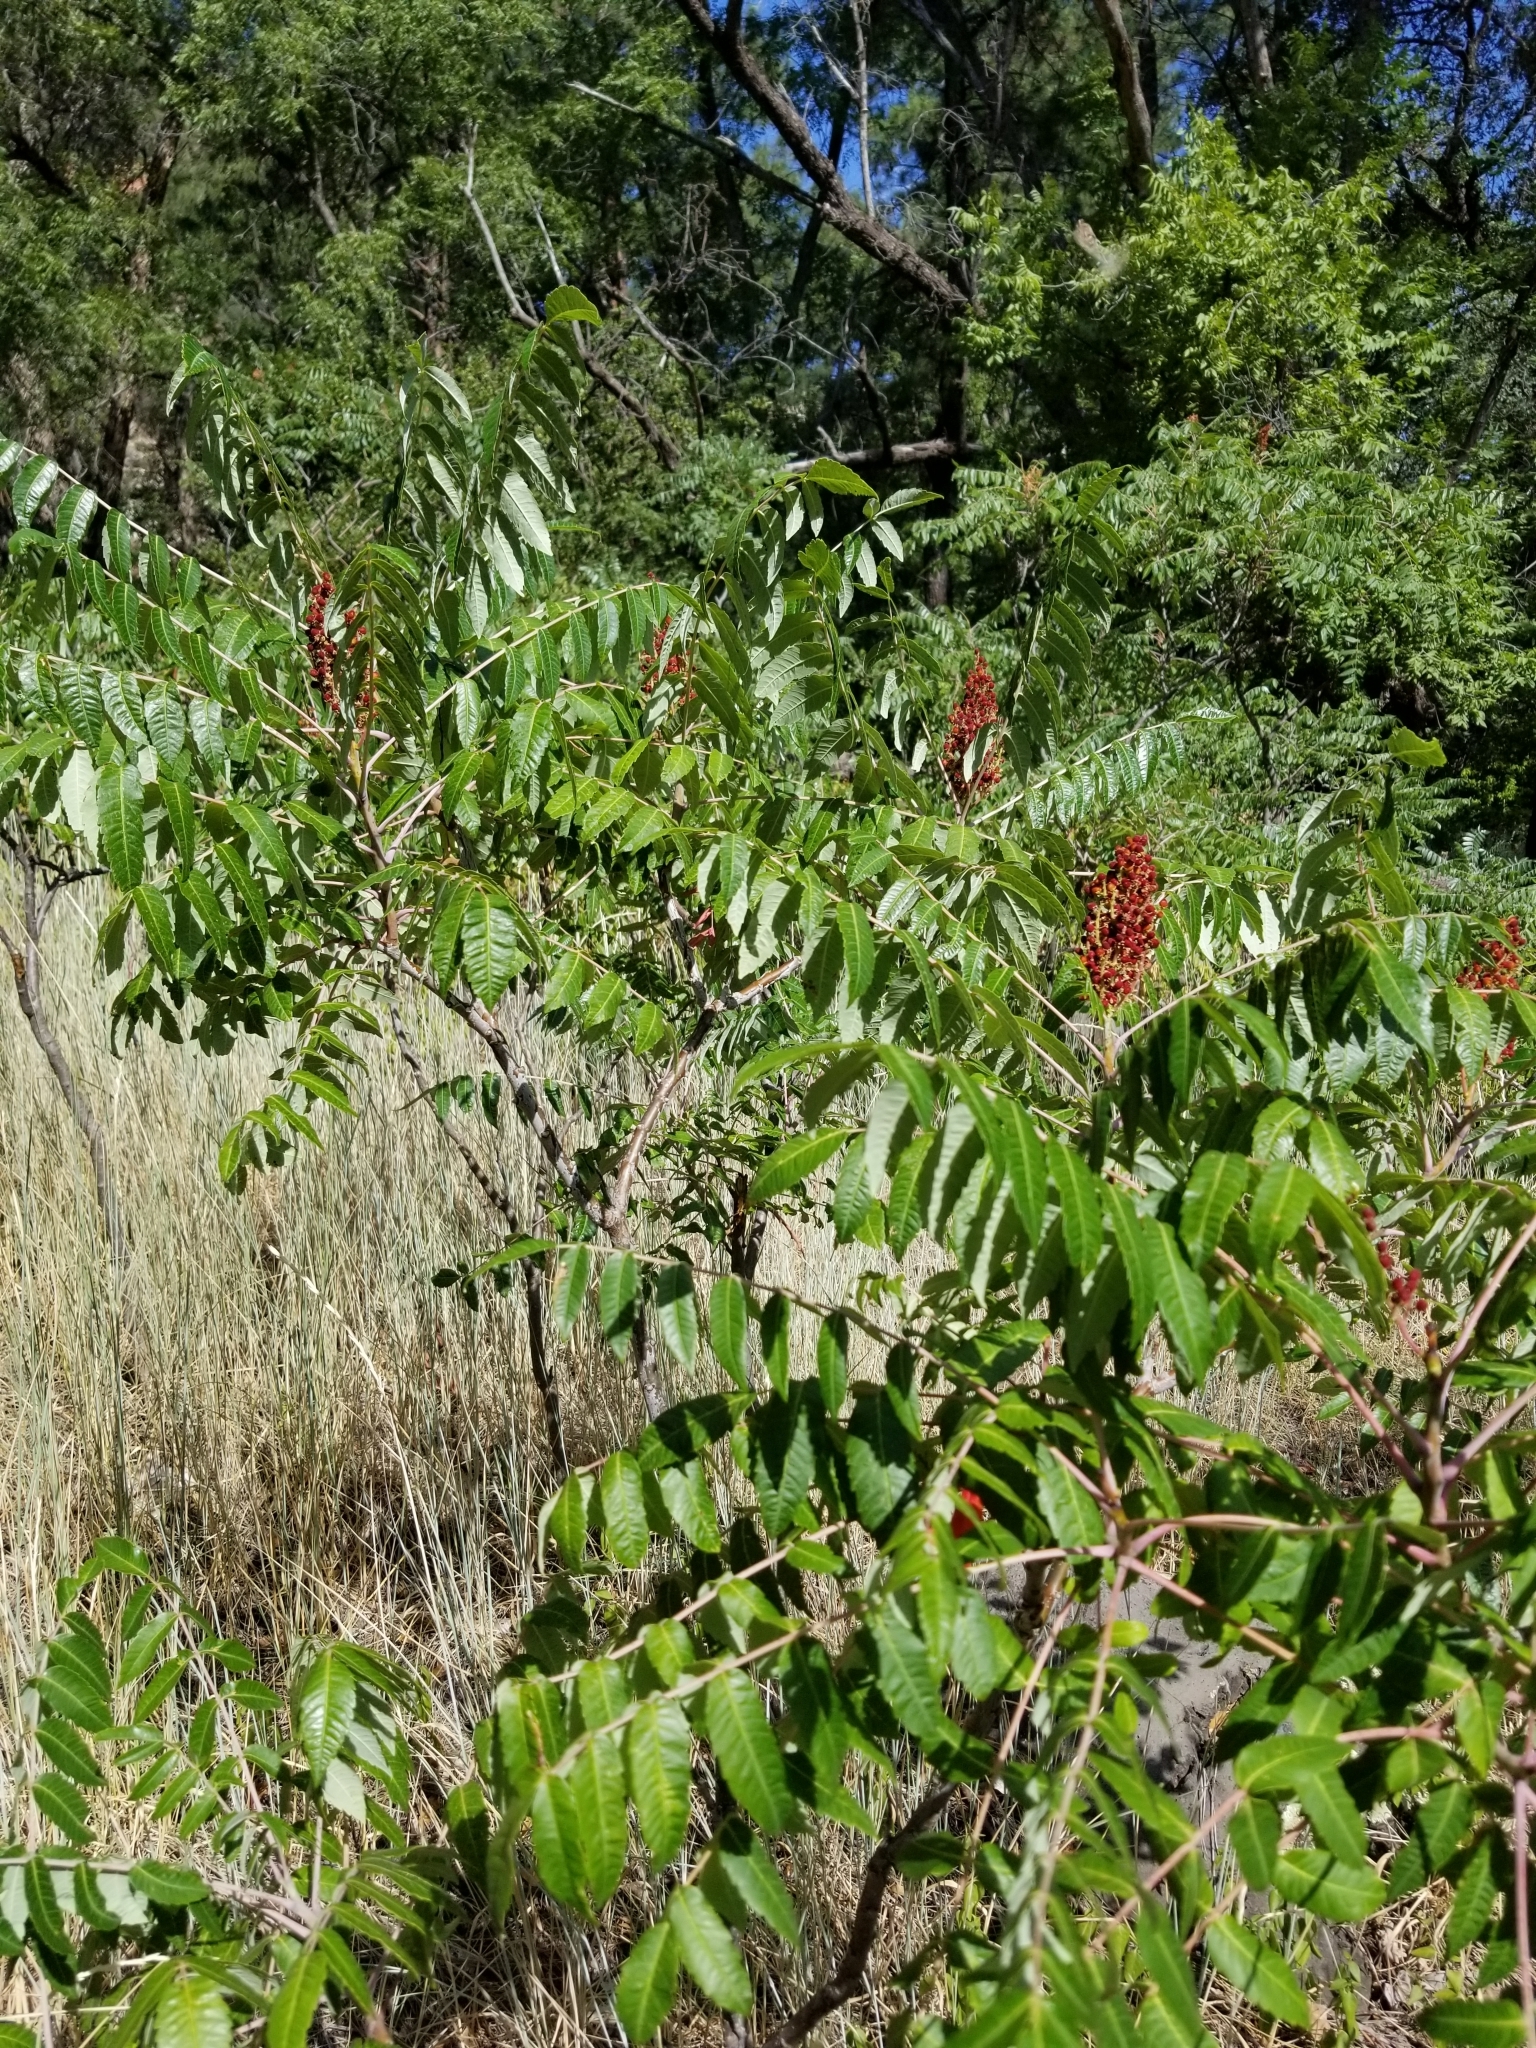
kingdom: Plantae
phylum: Tracheophyta
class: Magnoliopsida
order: Sapindales
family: Anacardiaceae
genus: Rhus
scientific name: Rhus glabra
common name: Scarlet sumac
